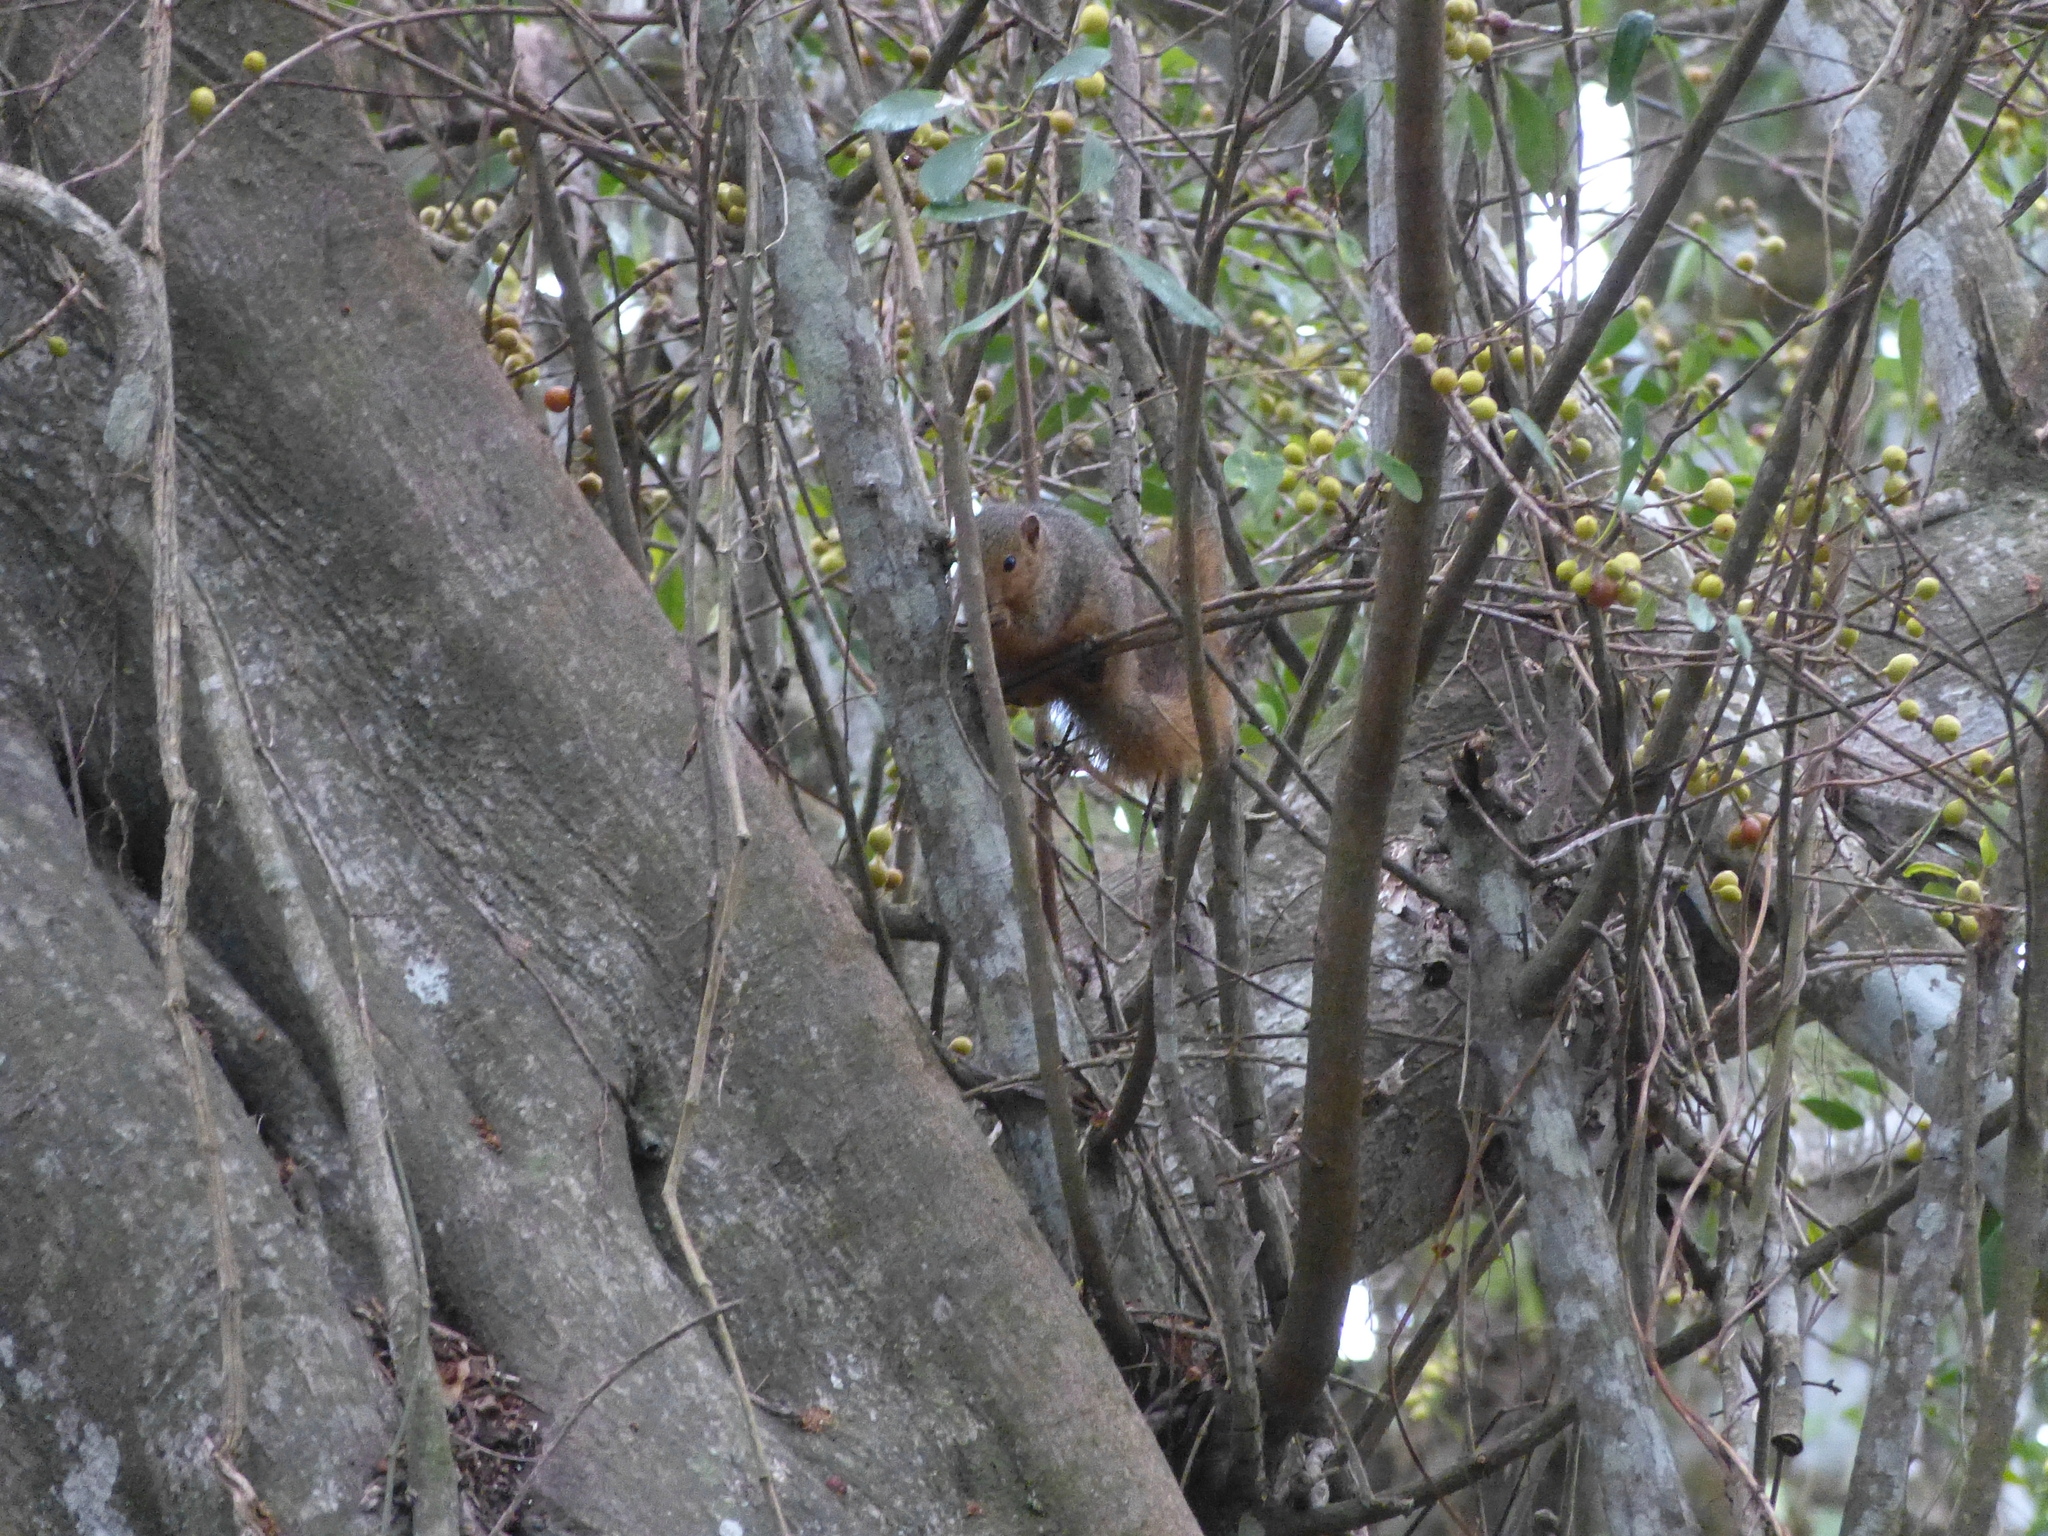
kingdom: Animalia
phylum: Chordata
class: Mammalia
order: Rodentia
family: Sciuridae
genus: Paraxerus
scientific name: Paraxerus palliatus
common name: Red bush squirrel
